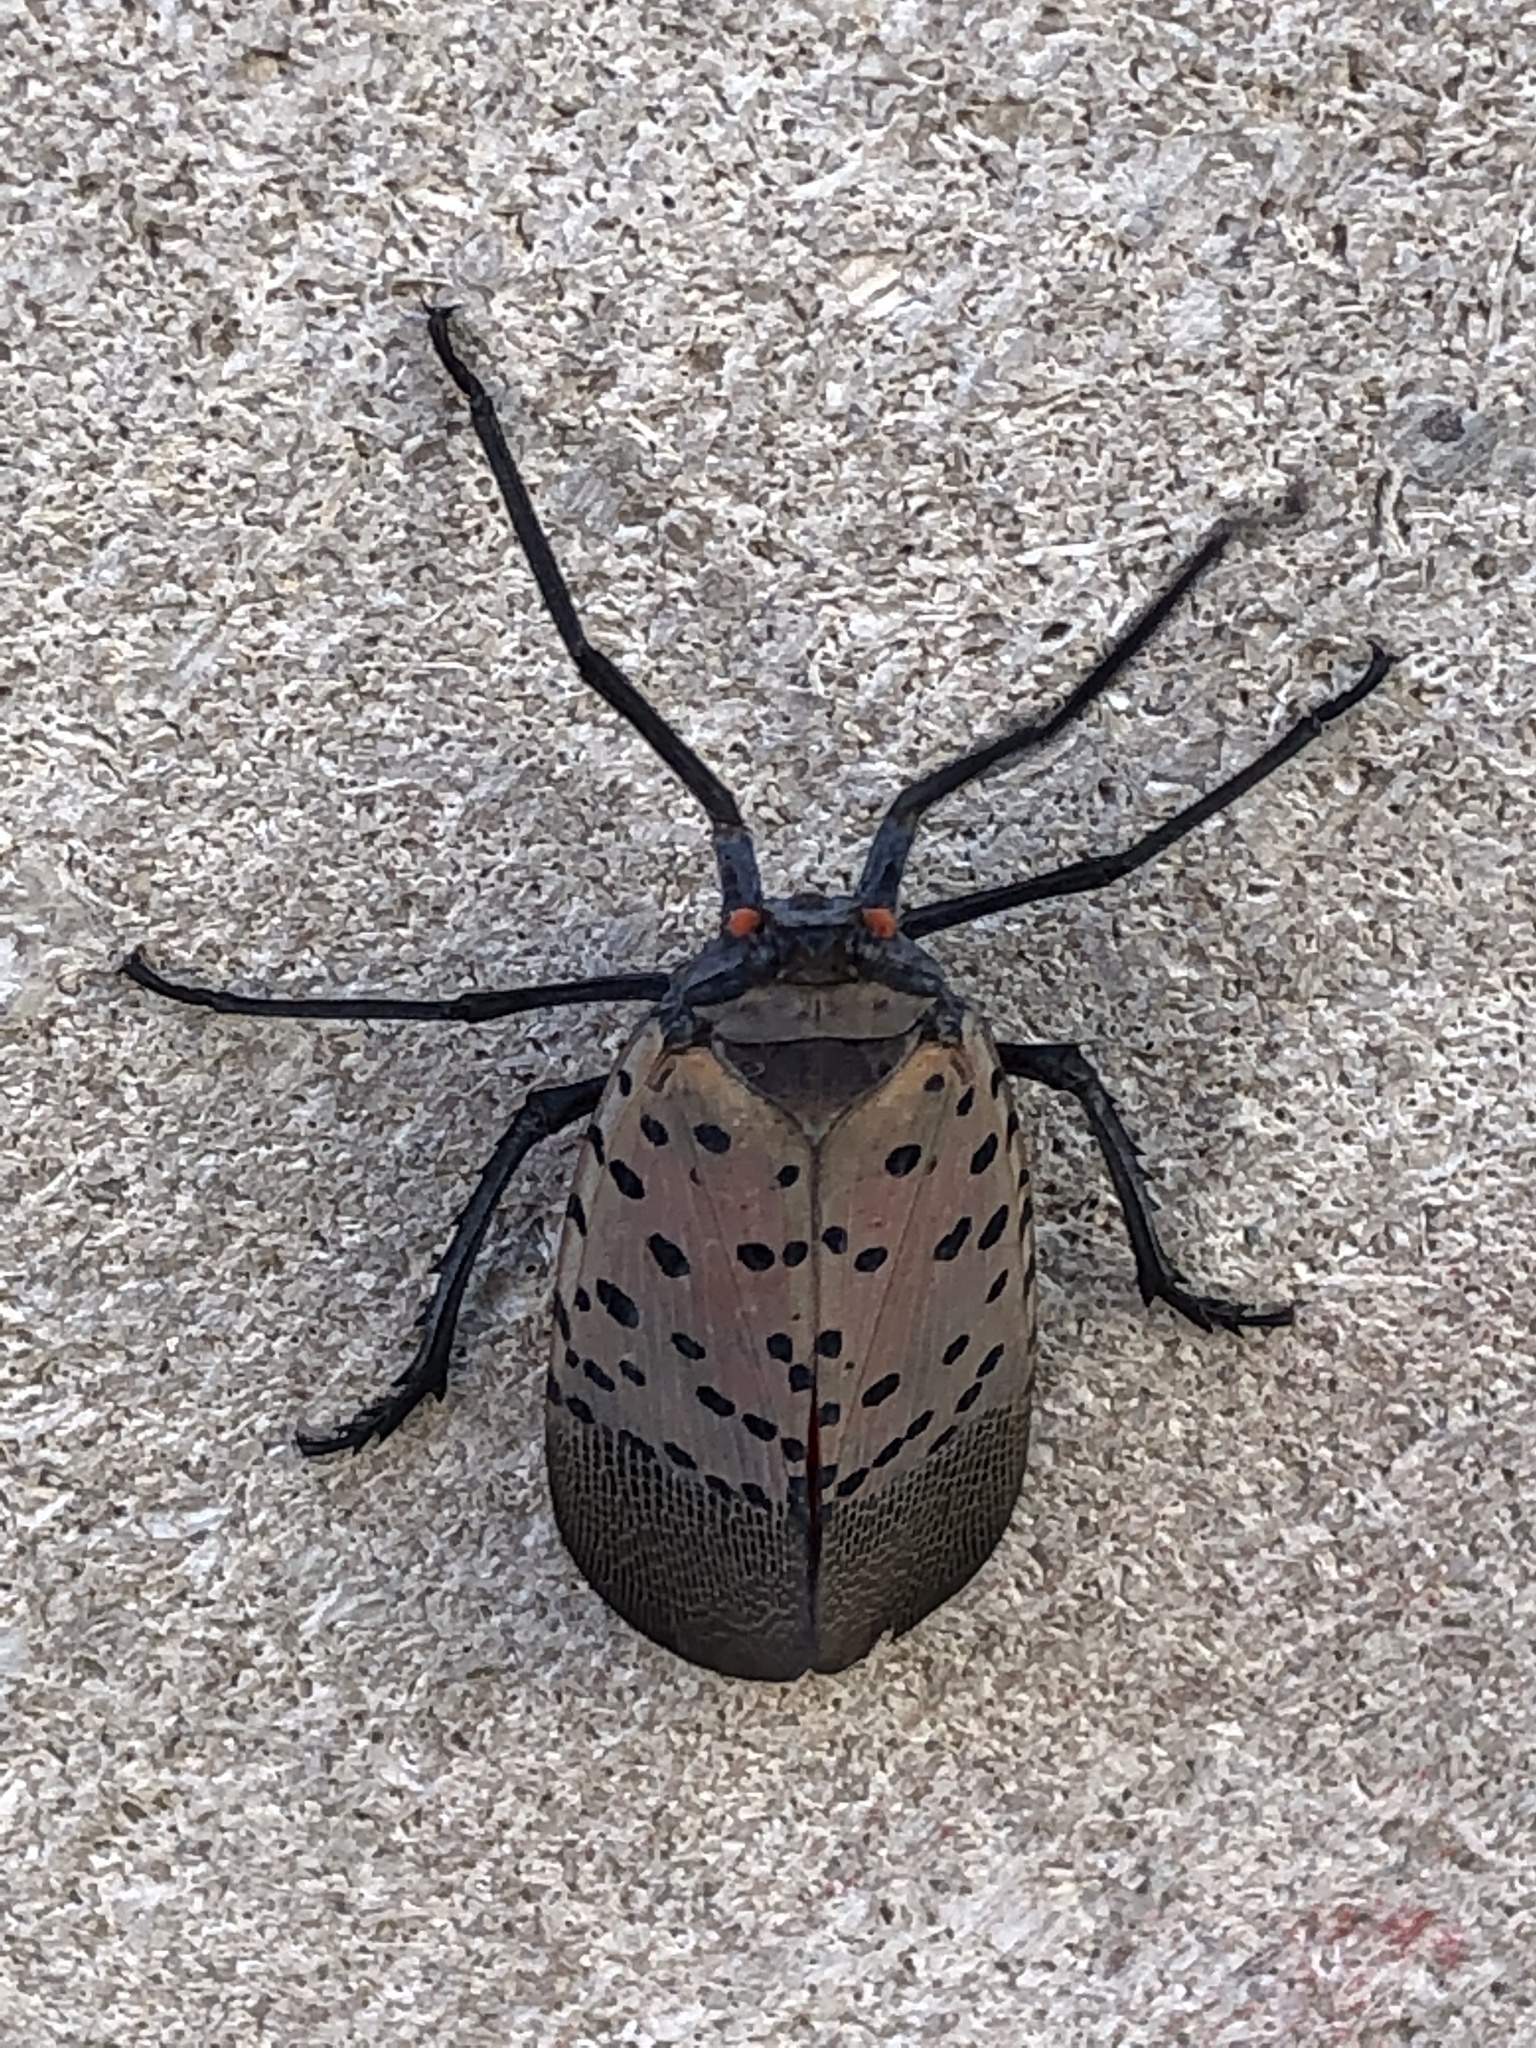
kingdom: Animalia
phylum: Arthropoda
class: Insecta
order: Hemiptera
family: Fulgoridae
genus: Lycorma
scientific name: Lycorma delicatula
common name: Spotted lanternfly
